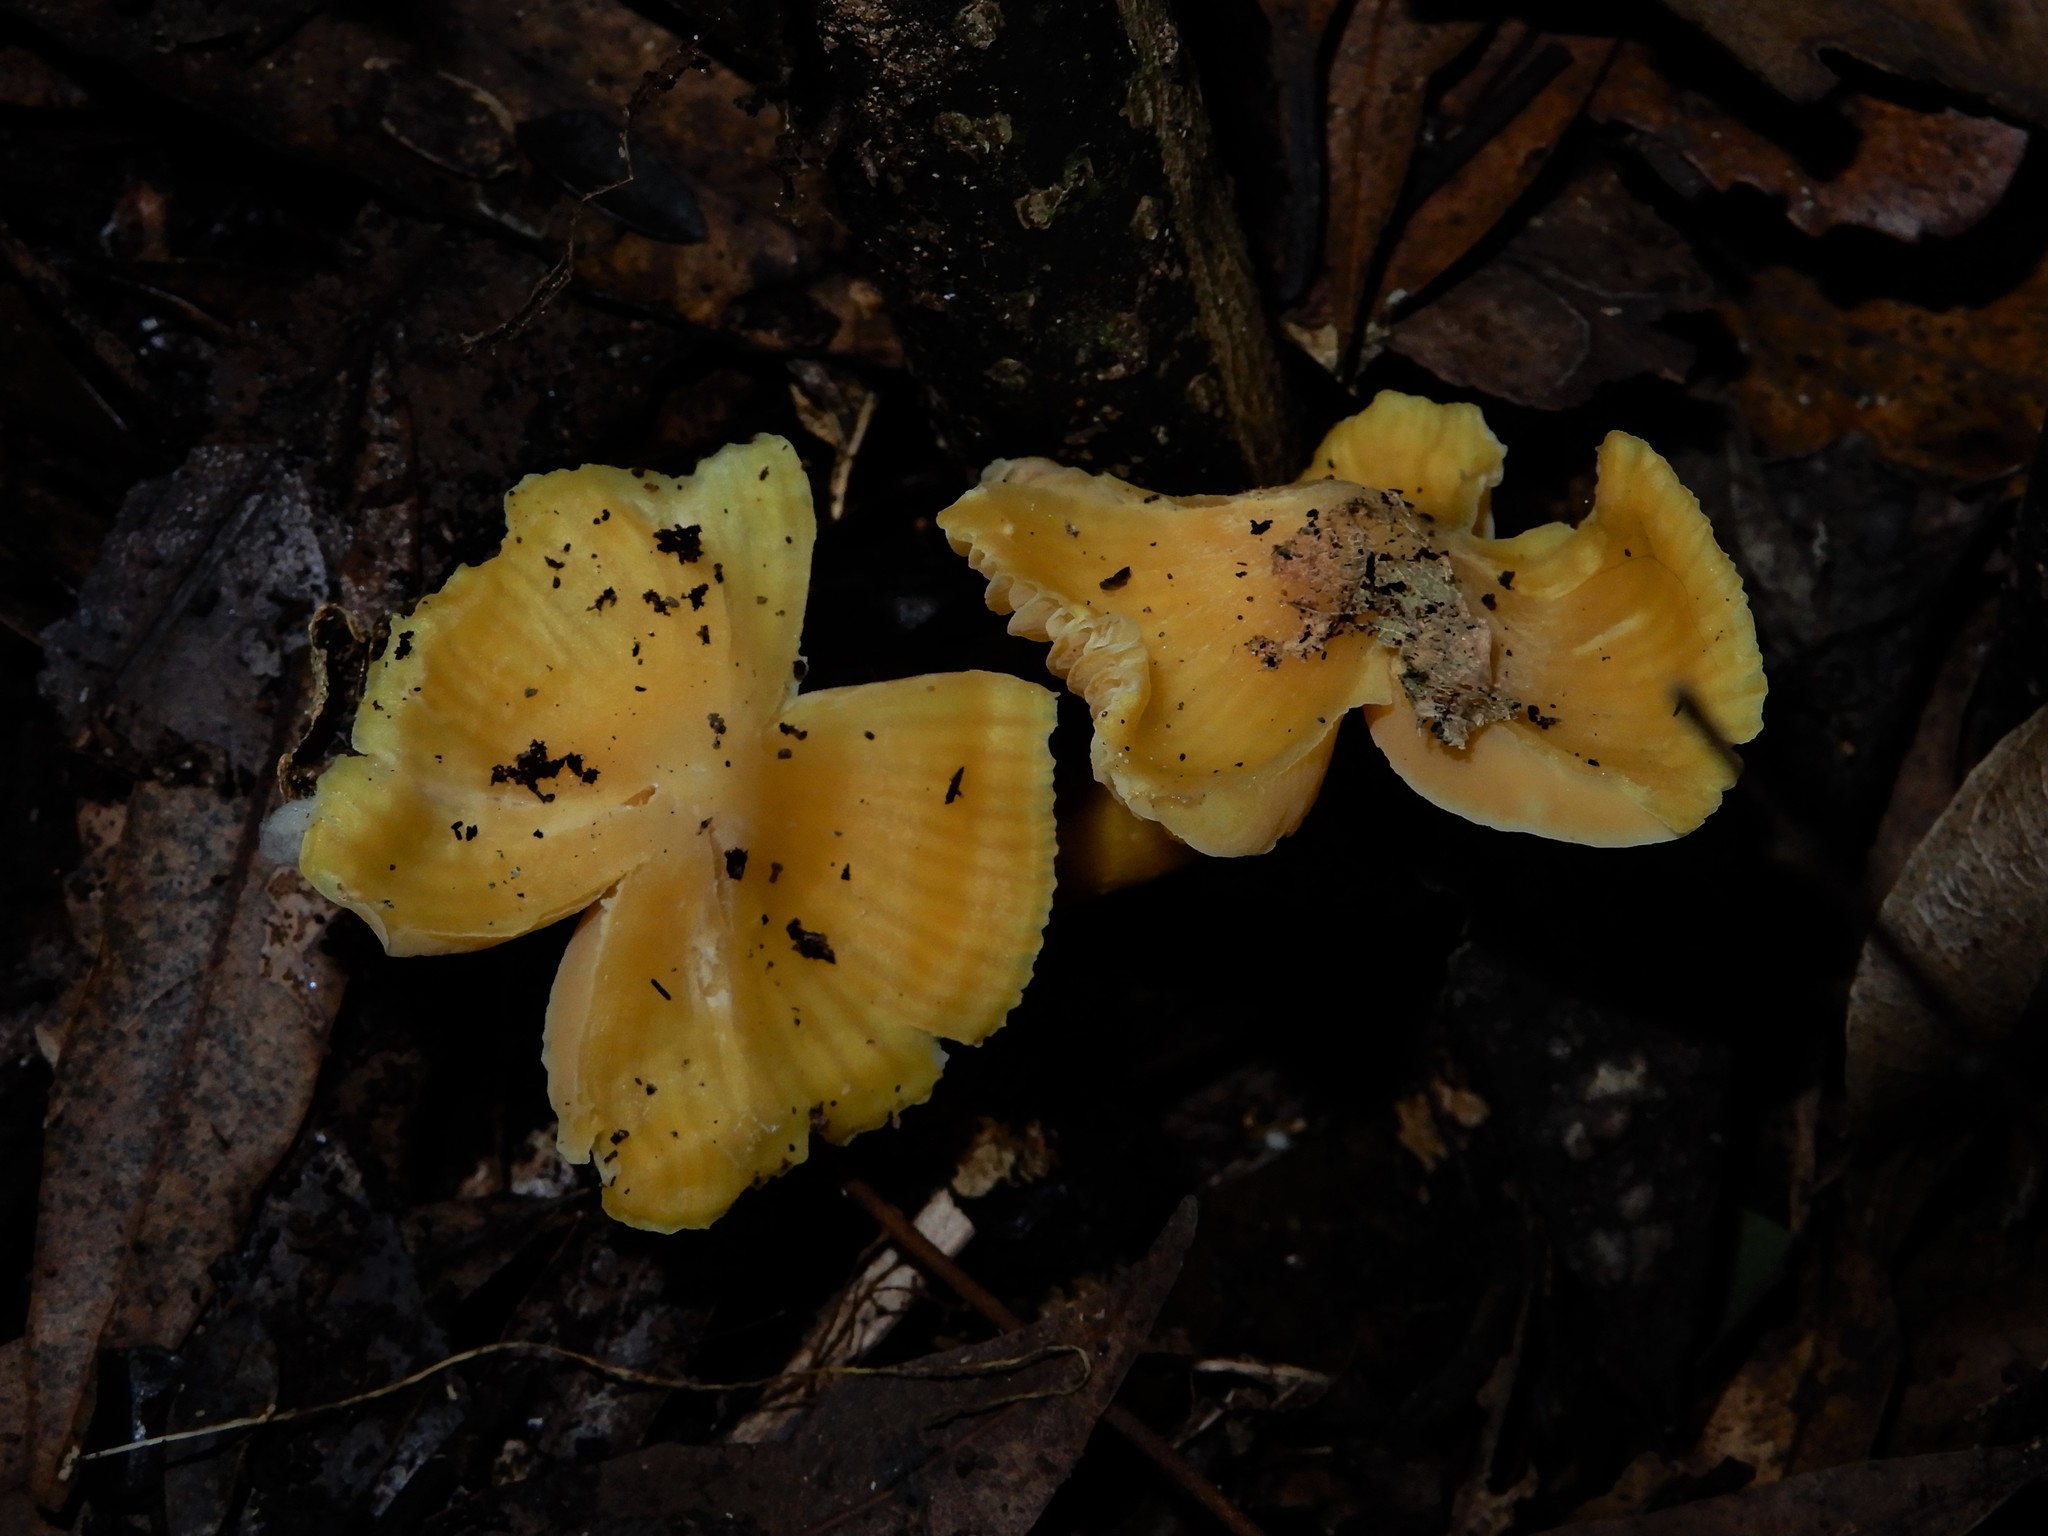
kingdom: Fungi
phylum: Basidiomycota
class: Agaricomycetes
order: Agaricales
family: Hygrophoraceae
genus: Hygrocybe
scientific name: Hygrocybe
